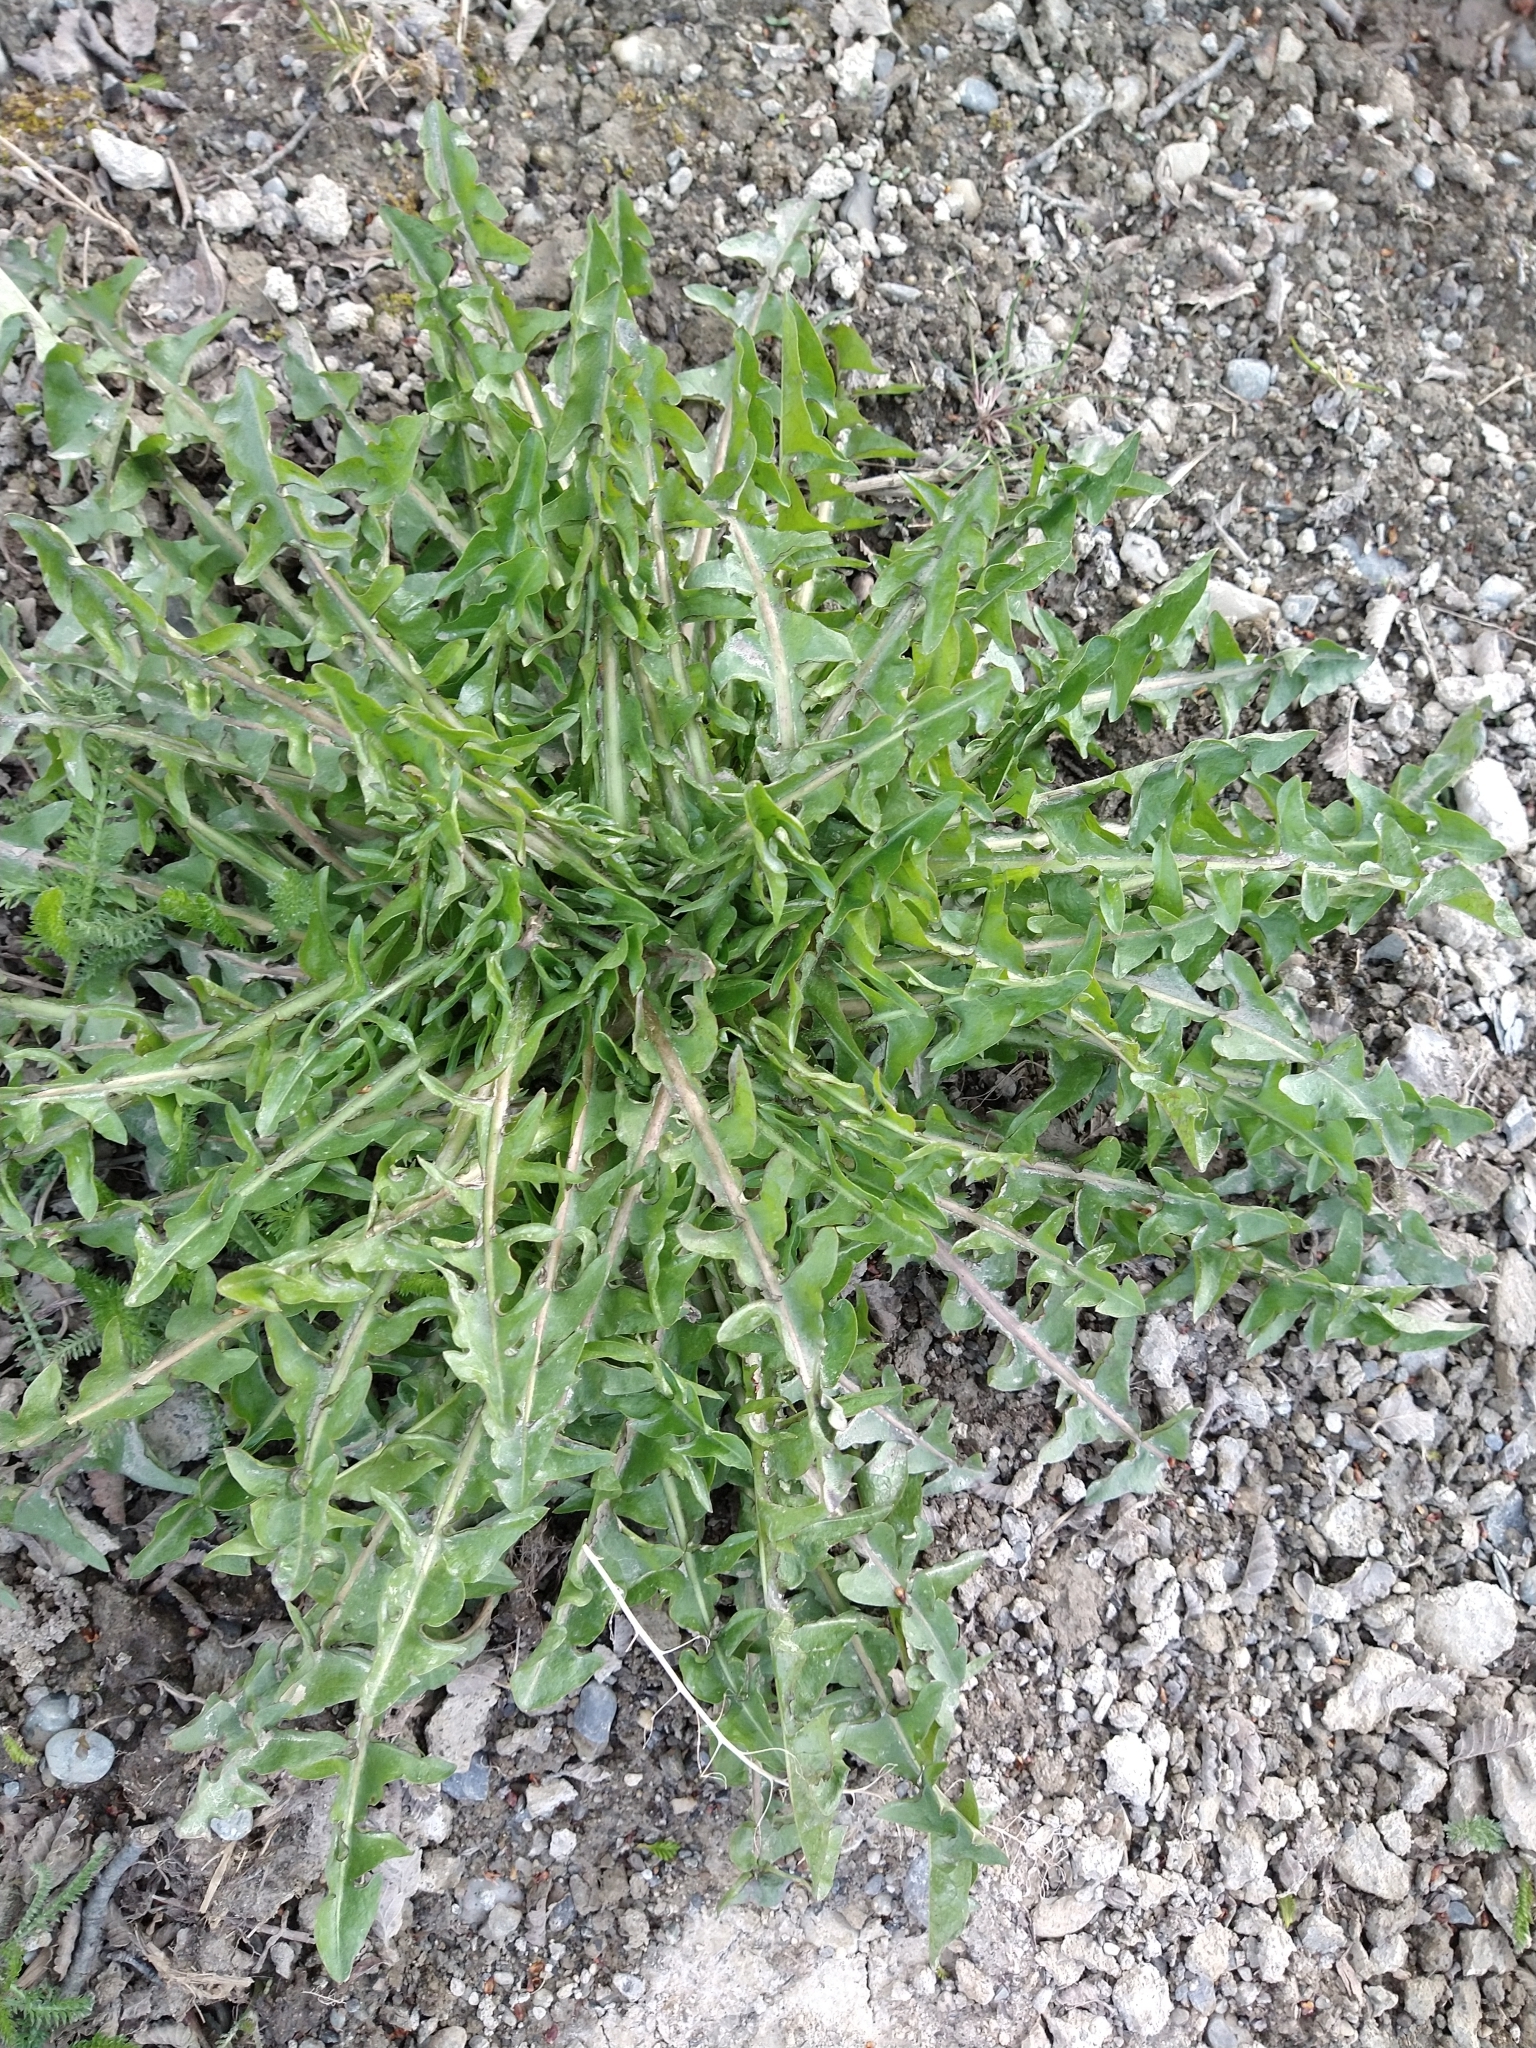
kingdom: Plantae
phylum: Tracheophyta
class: Magnoliopsida
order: Asterales
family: Asteraceae
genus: Taraxacum
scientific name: Taraxacum officinale
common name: Common dandelion
